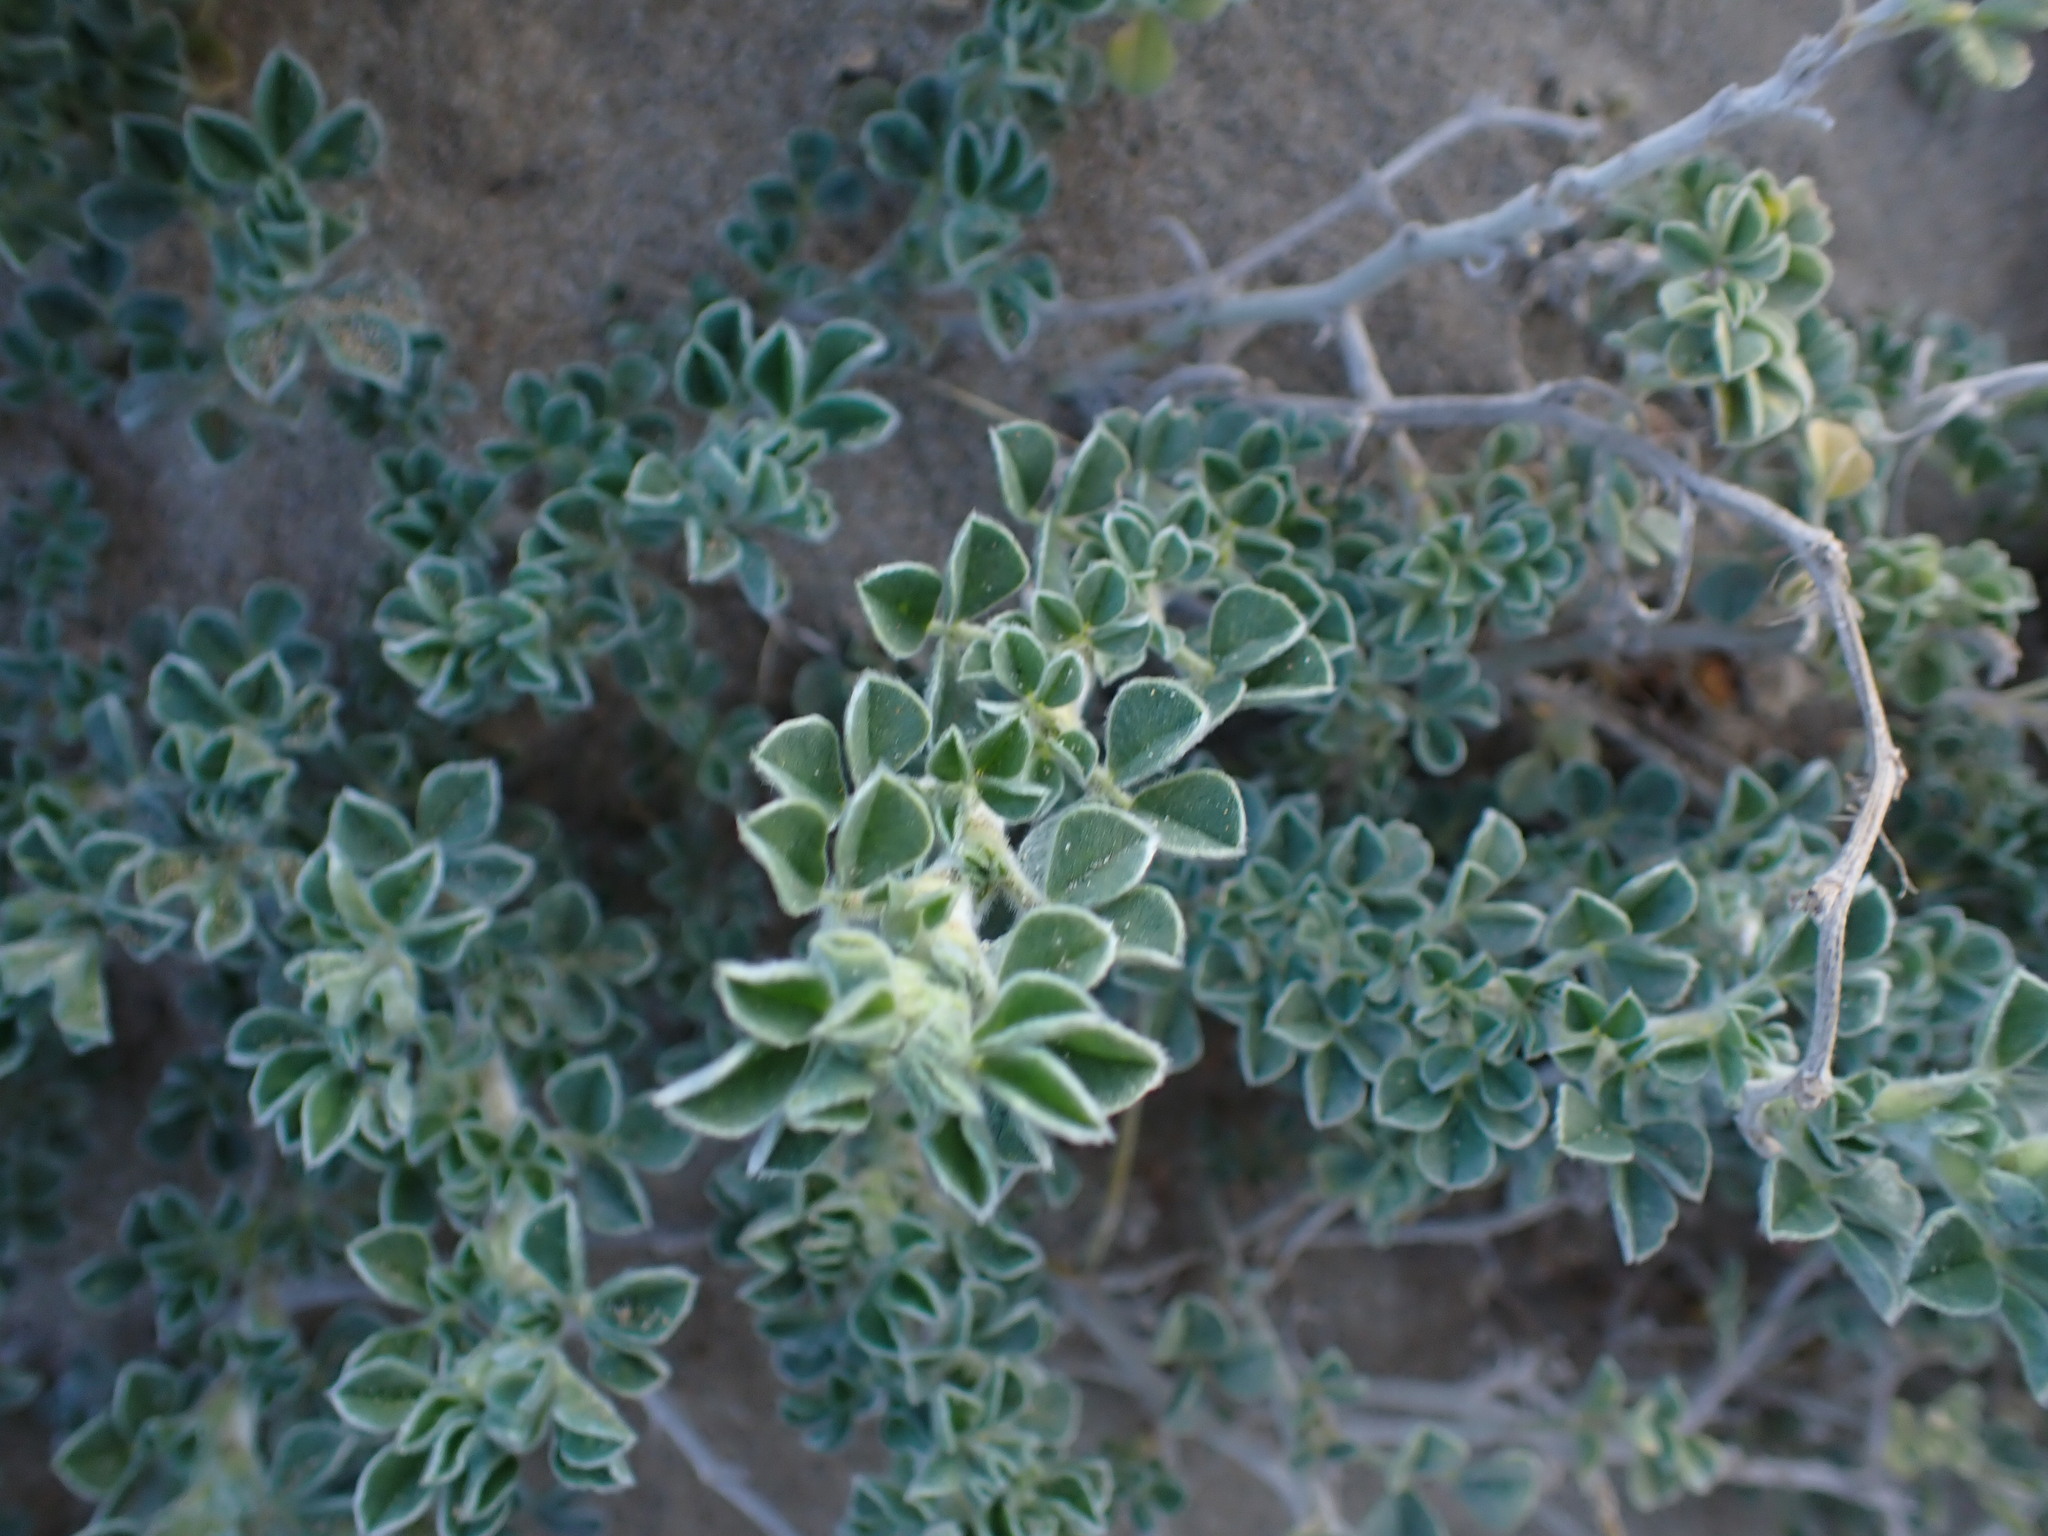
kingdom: Plantae
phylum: Tracheophyta
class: Magnoliopsida
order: Fabales
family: Fabaceae
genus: Medicago
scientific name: Medicago marina
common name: Sea medick
